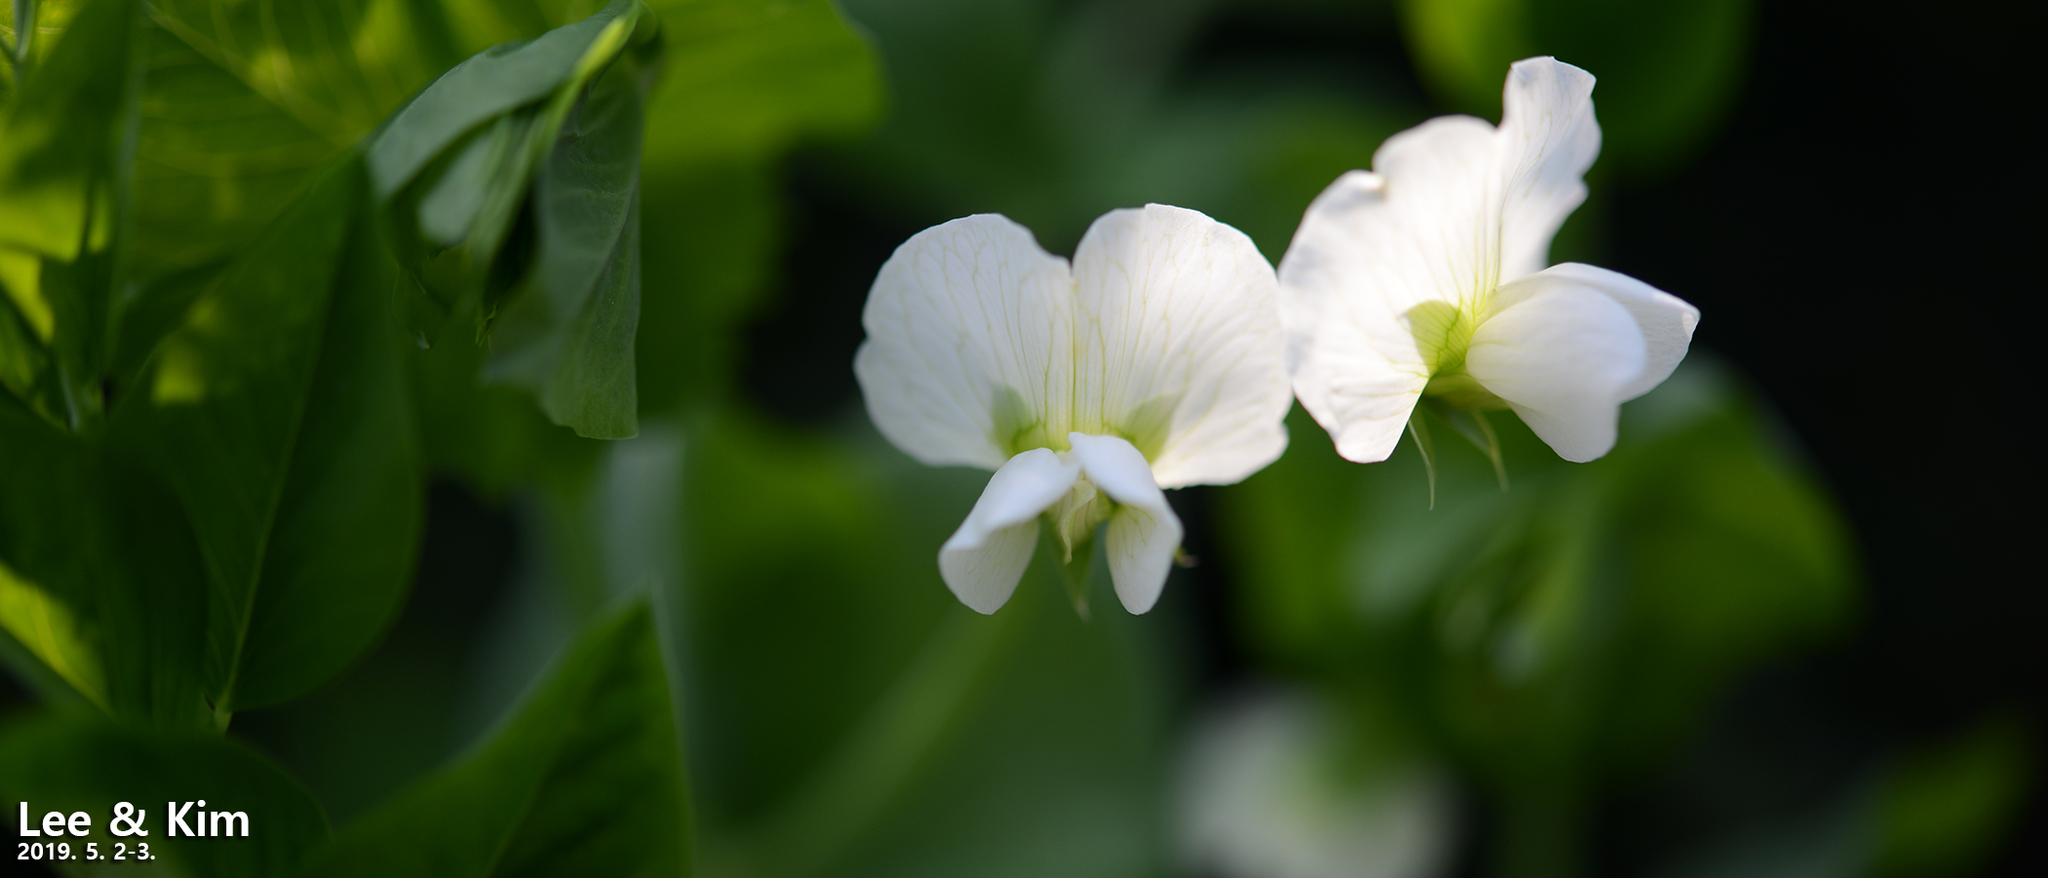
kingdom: Plantae
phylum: Tracheophyta
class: Magnoliopsida
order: Fabales
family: Fabaceae
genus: Lathyrus
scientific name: Lathyrus oleraceus
